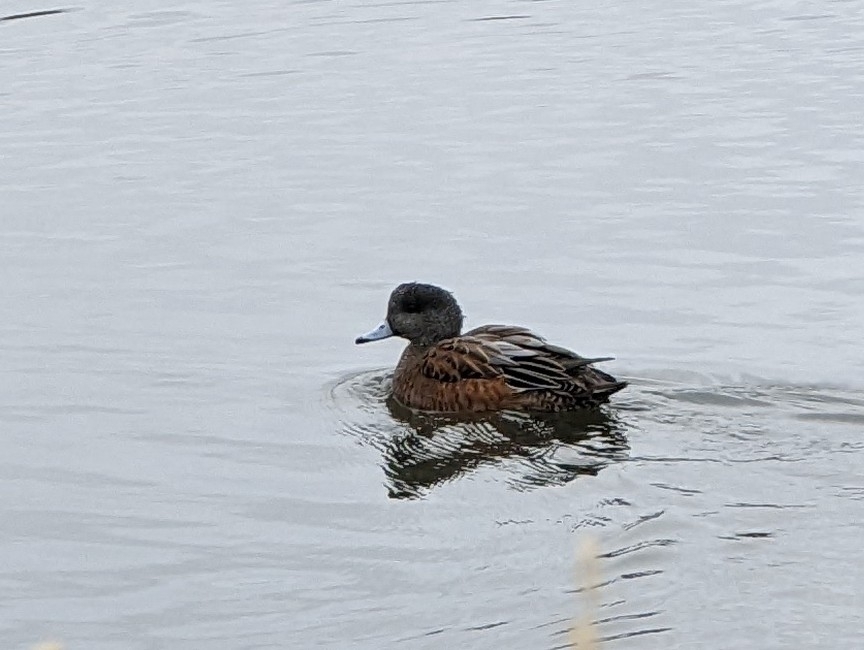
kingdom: Animalia
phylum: Chordata
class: Aves
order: Anseriformes
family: Anatidae
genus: Mareca
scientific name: Mareca americana
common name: American wigeon
